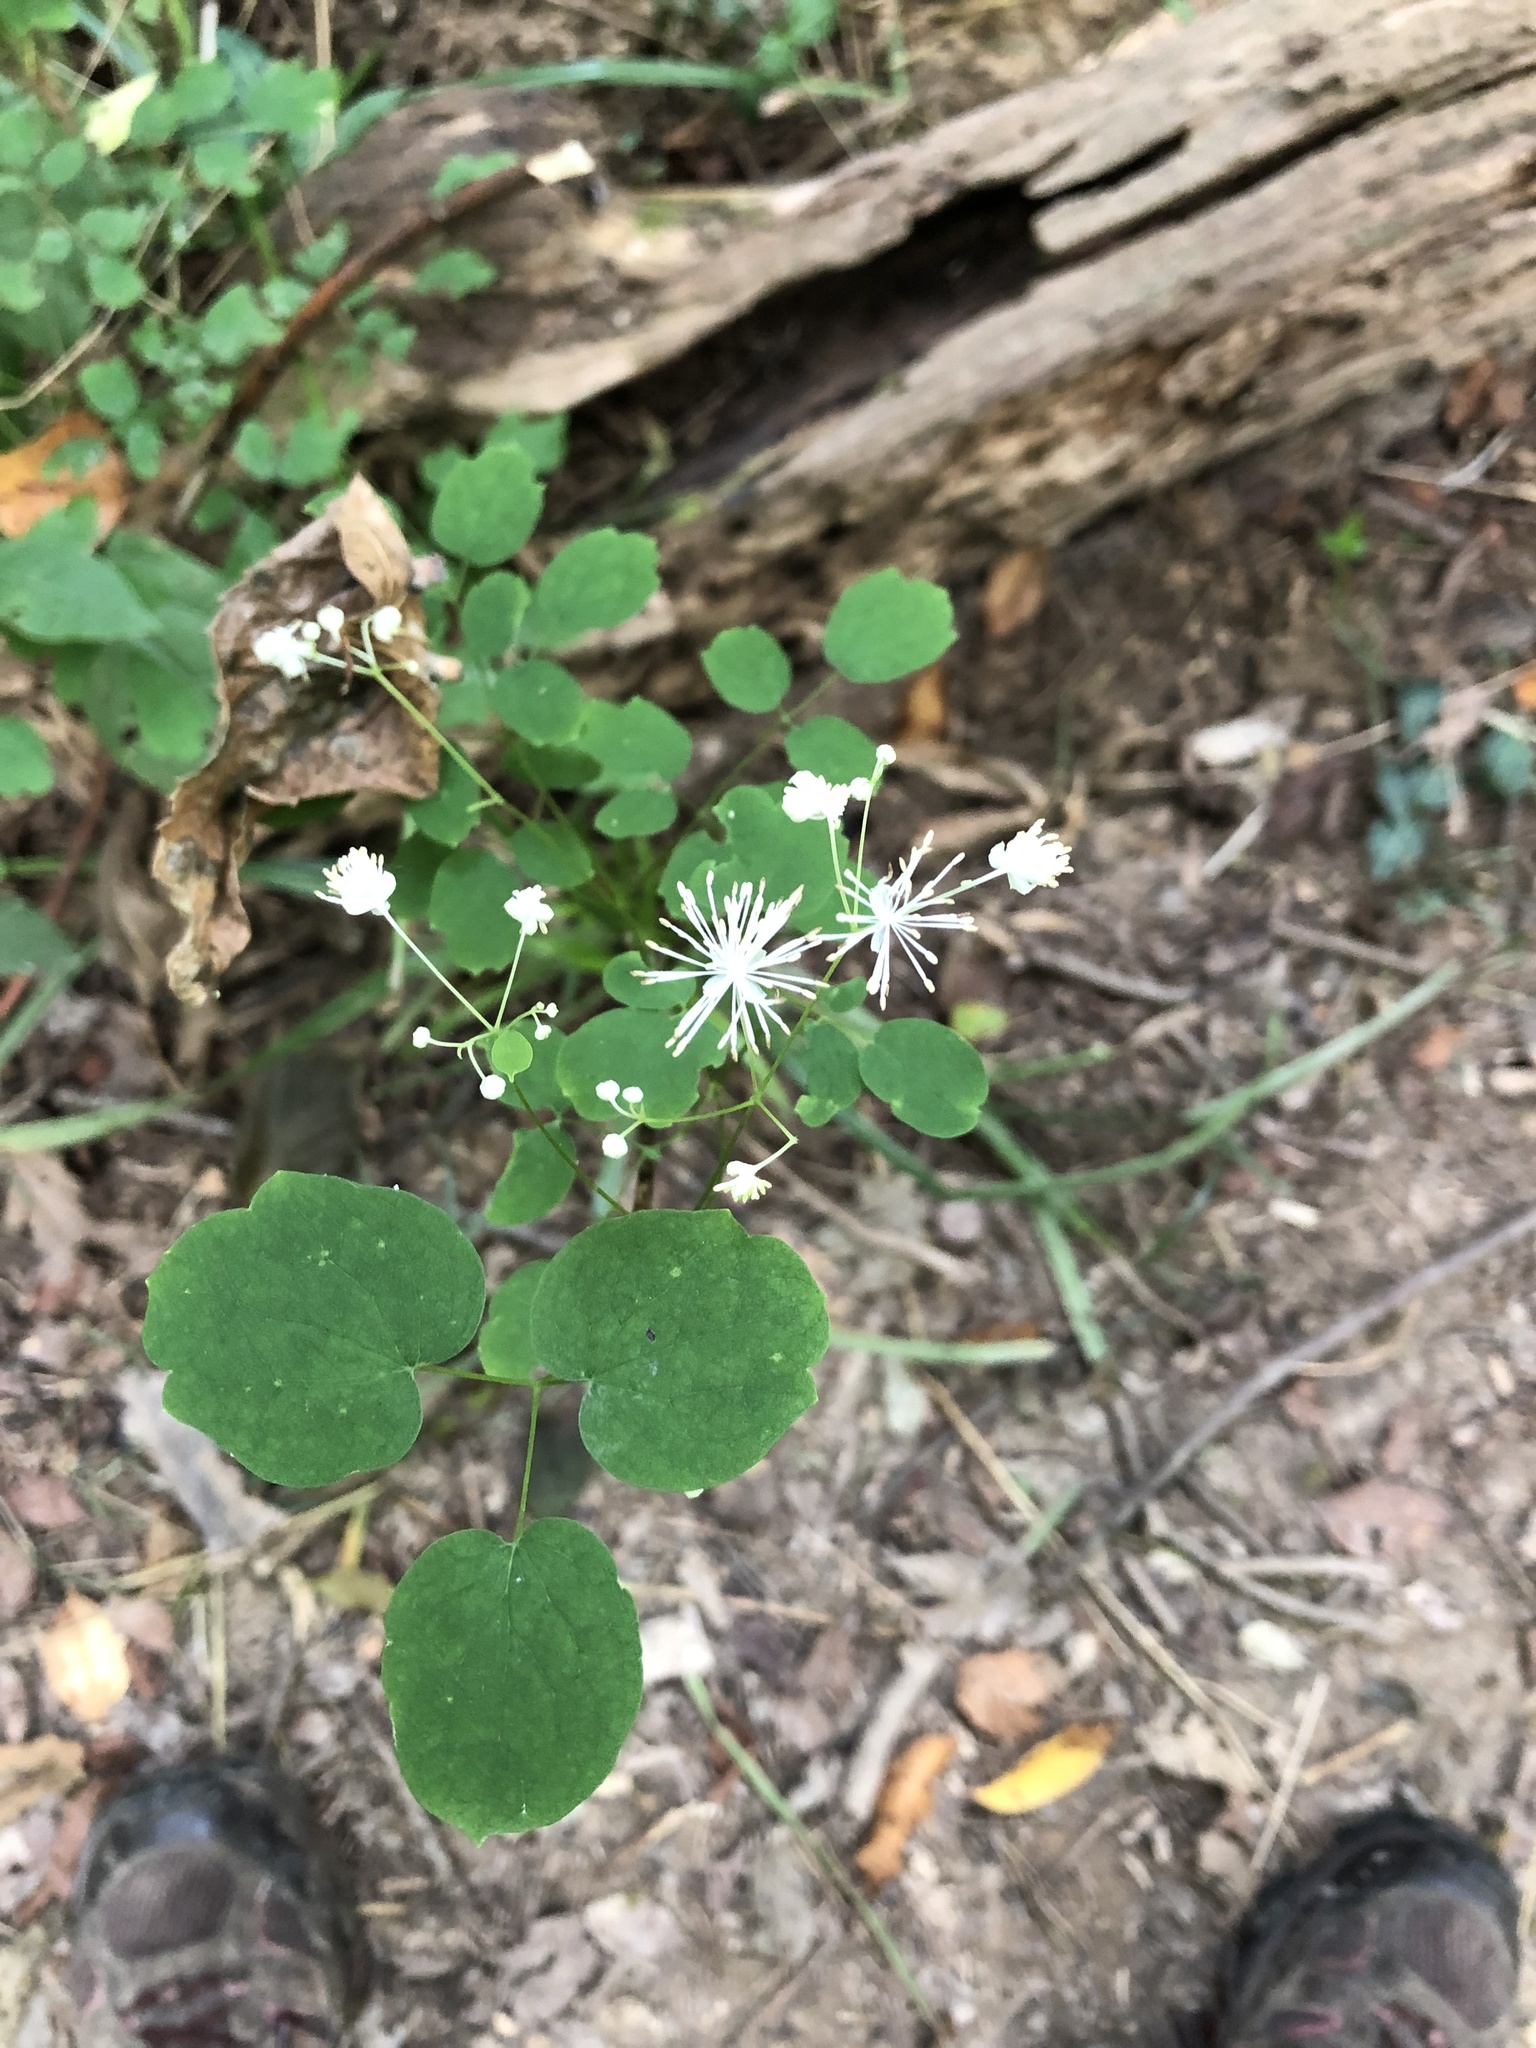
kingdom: Plantae
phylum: Tracheophyta
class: Magnoliopsida
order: Ranunculales
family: Ranunculaceae
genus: Thalictrum
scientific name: Thalictrum pubescens
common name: King-of-the-meadow
